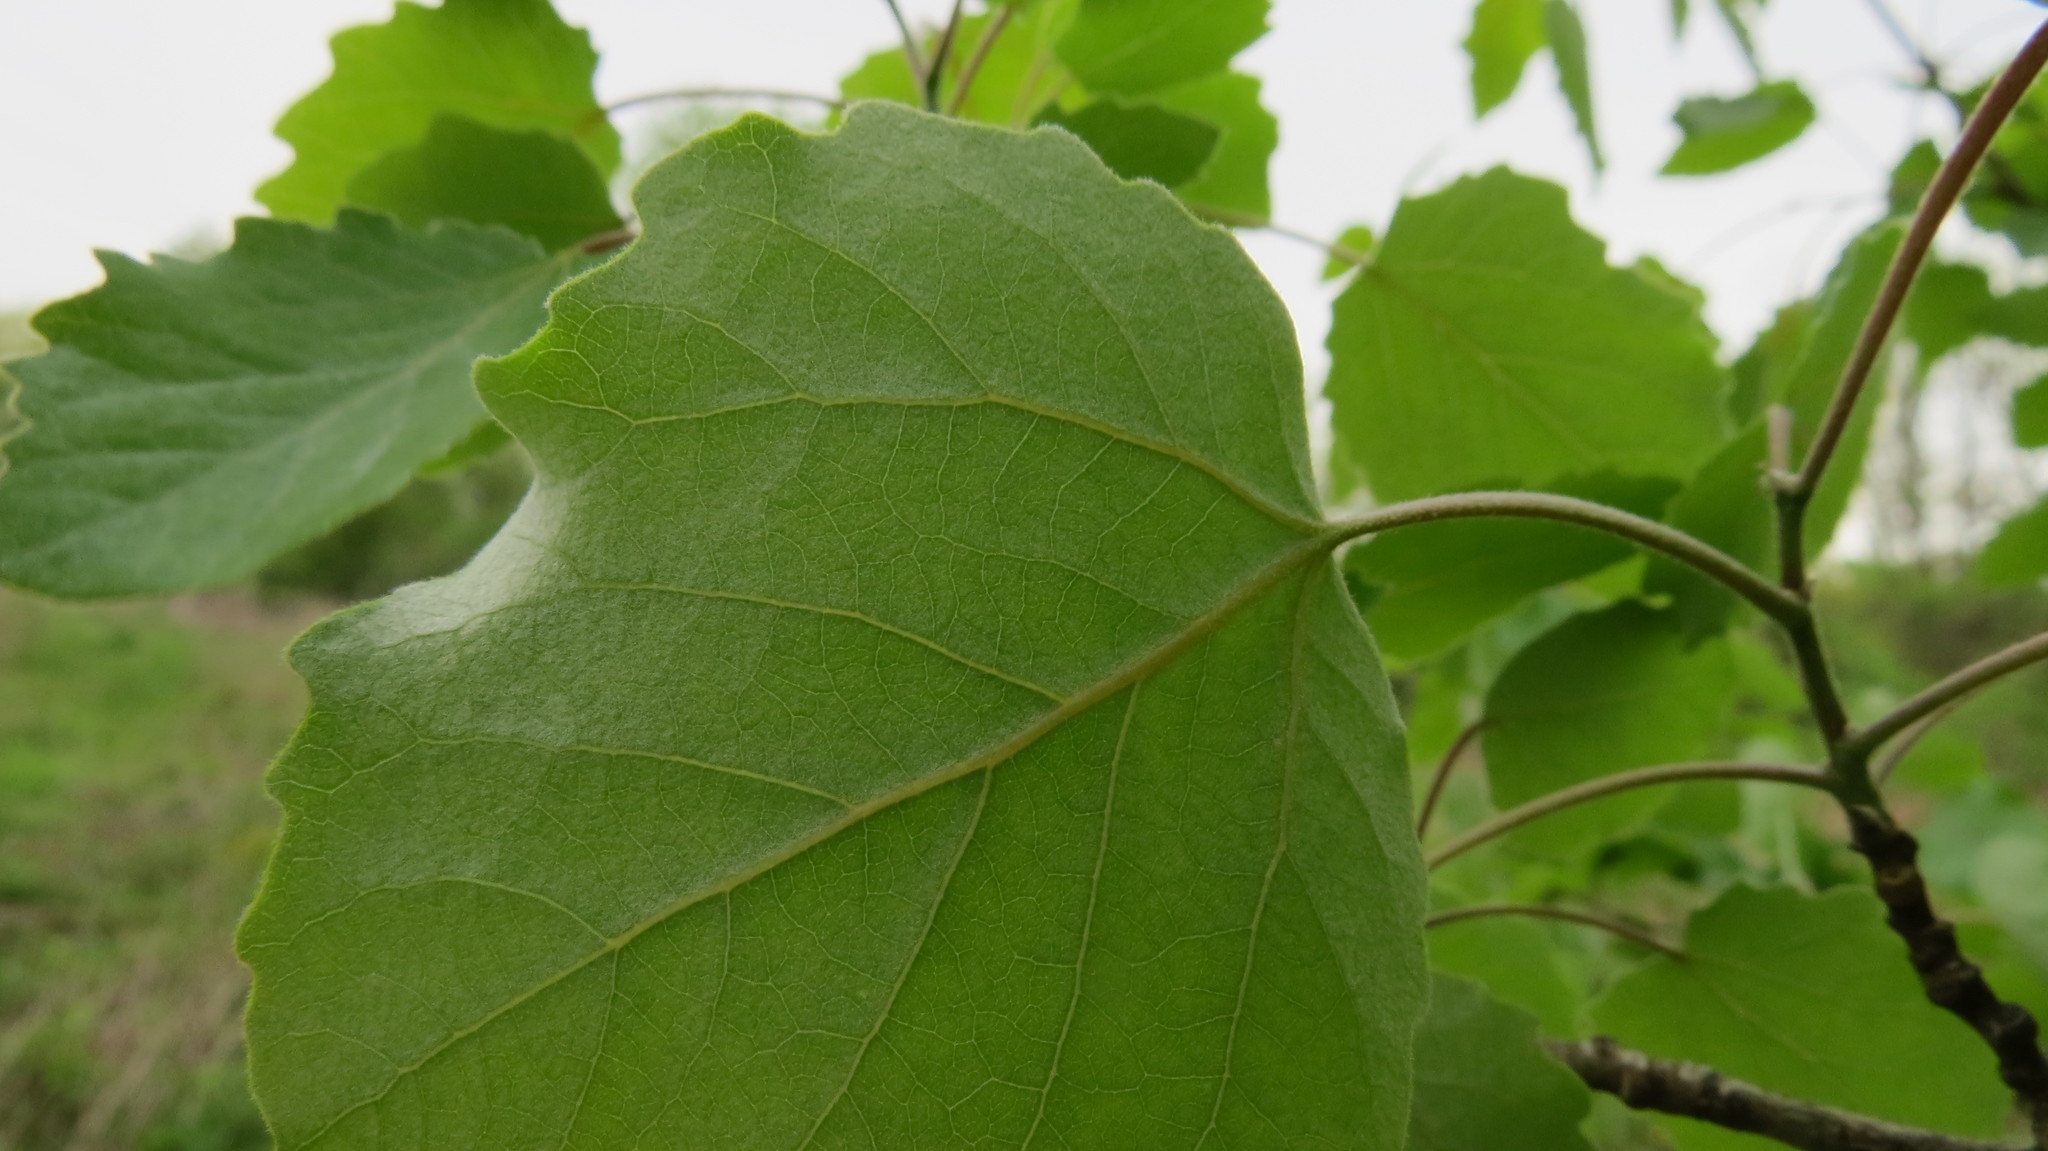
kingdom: Plantae
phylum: Tracheophyta
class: Magnoliopsida
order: Malpighiales
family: Salicaceae
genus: Populus
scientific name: Populus alba
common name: White poplar
